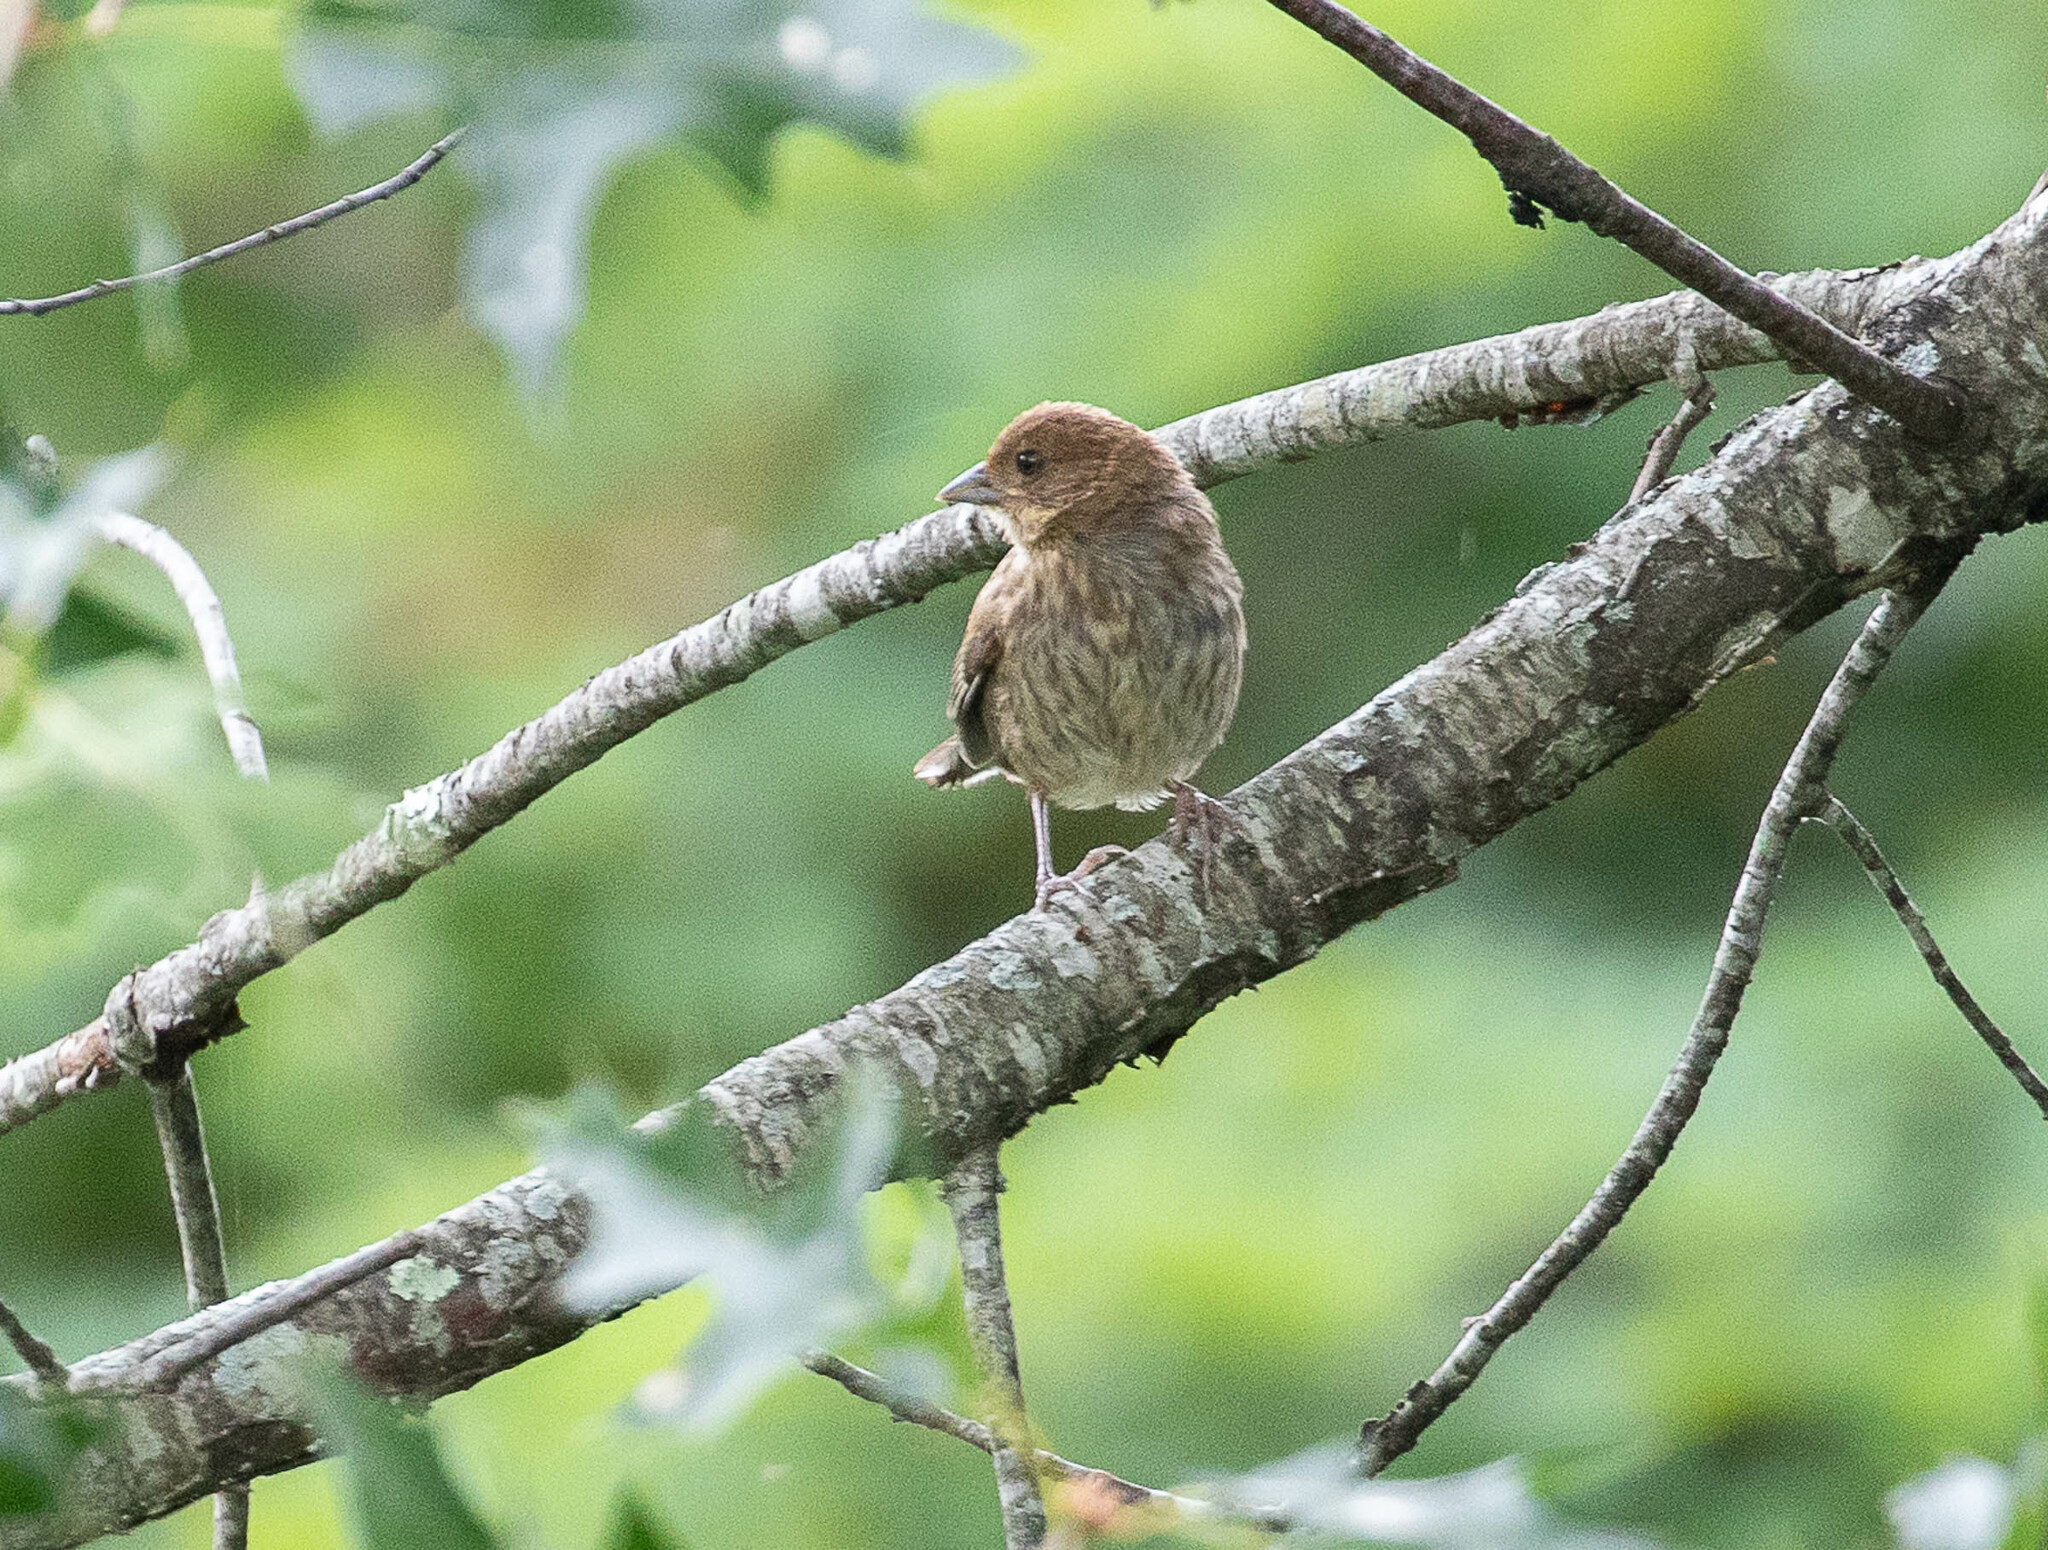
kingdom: Animalia
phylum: Chordata
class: Aves
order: Passeriformes
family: Cardinalidae
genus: Passerina
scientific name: Passerina cyanea
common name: Indigo bunting
